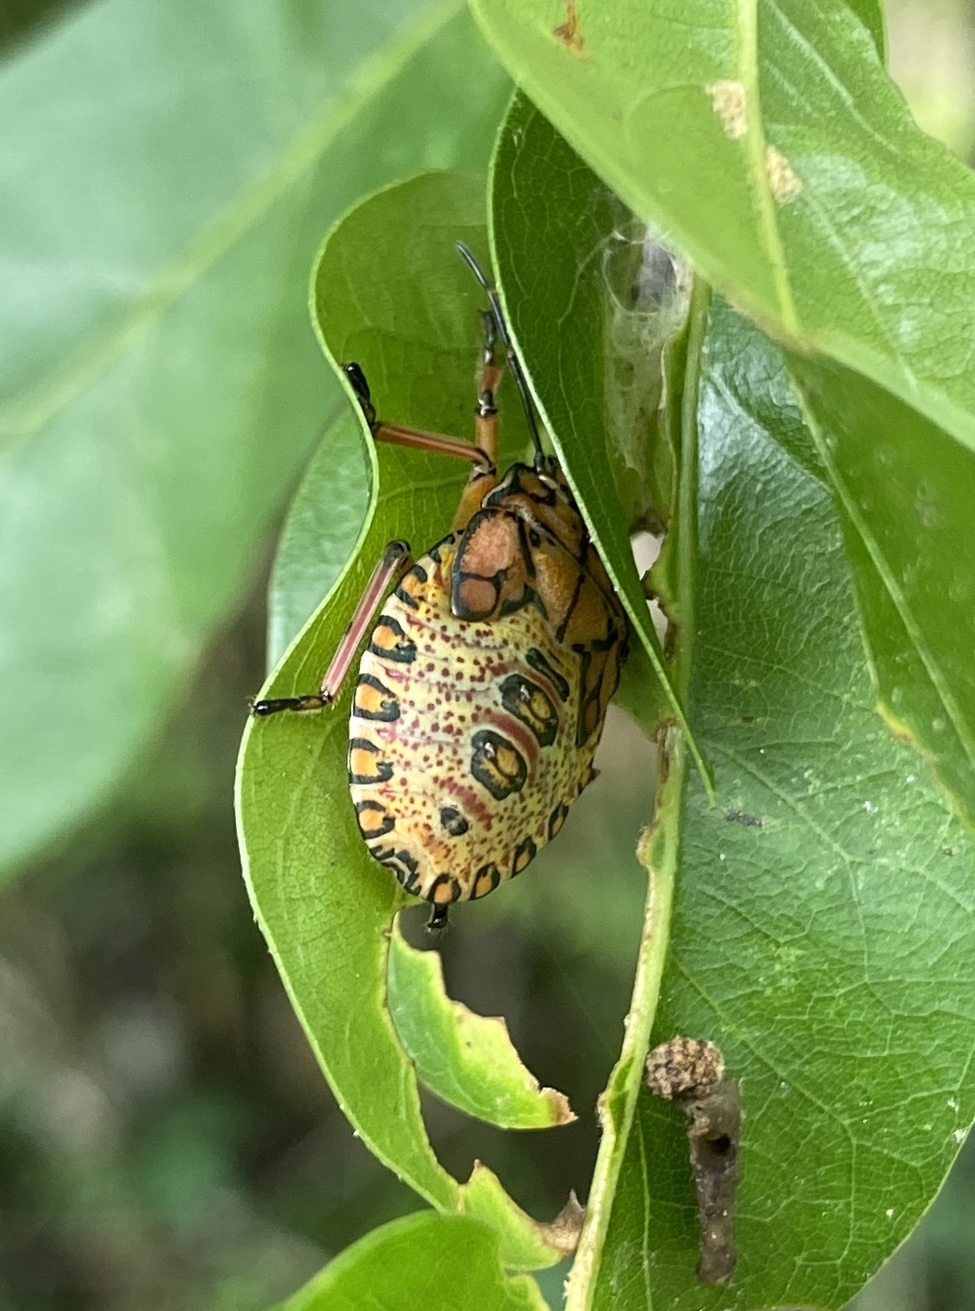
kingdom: Animalia
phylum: Arthropoda
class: Insecta
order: Hemiptera
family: Pentatomidae
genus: Apoecilus
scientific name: Apoecilus
